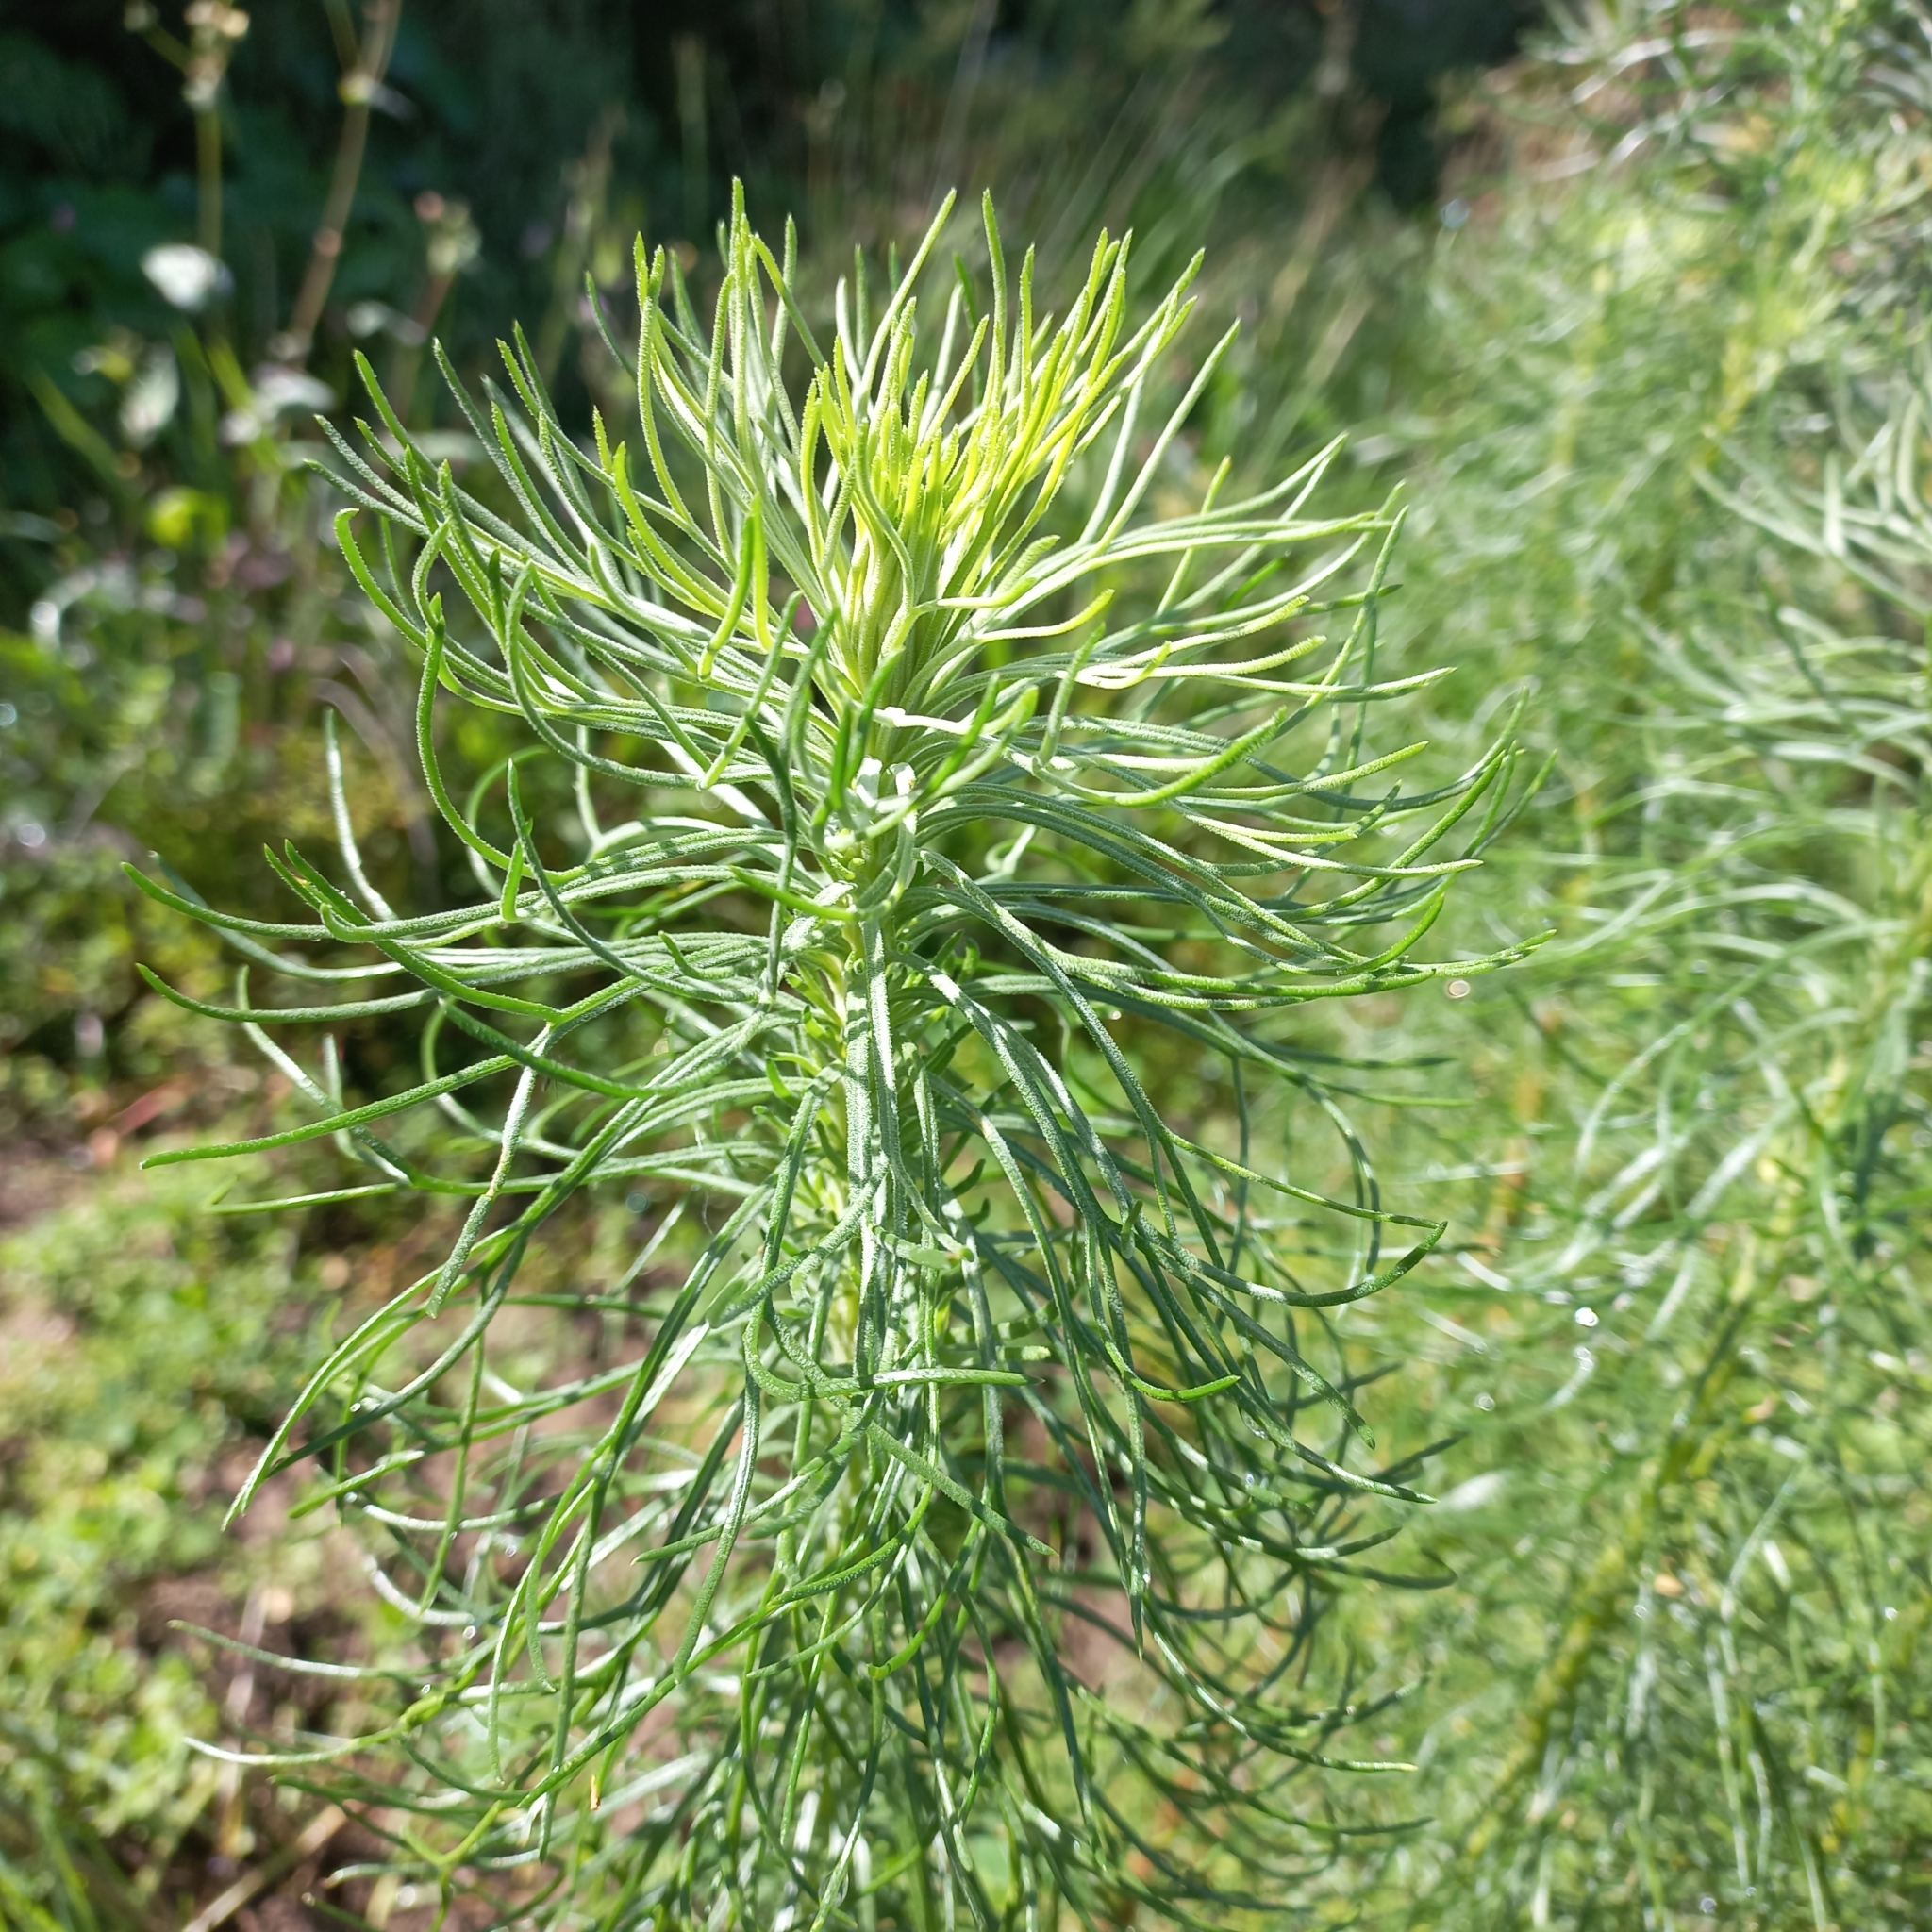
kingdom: Plantae
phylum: Tracheophyta
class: Magnoliopsida
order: Asterales
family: Asteraceae
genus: Hymenolepis
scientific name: Hymenolepis crithmifolia
